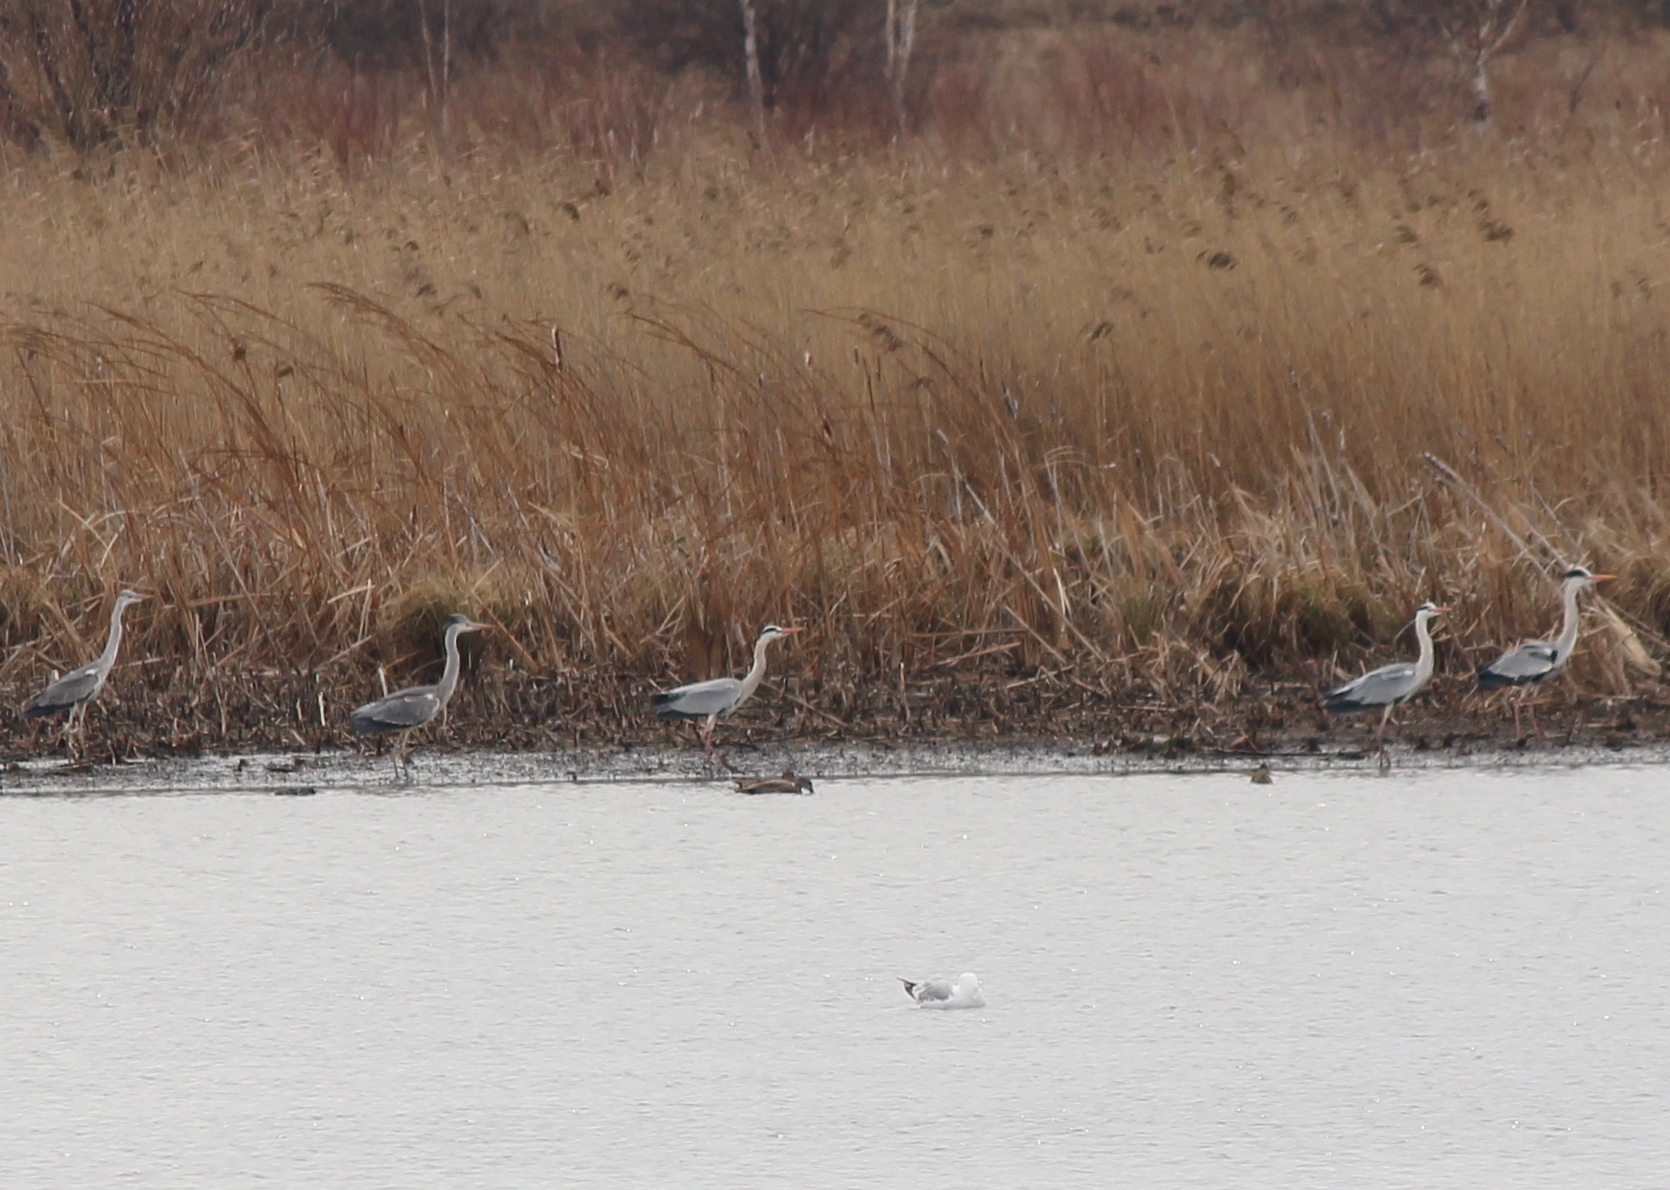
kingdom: Animalia
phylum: Chordata
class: Aves
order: Pelecaniformes
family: Ardeidae
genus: Ardea
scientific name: Ardea cinerea
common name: Grey heron
